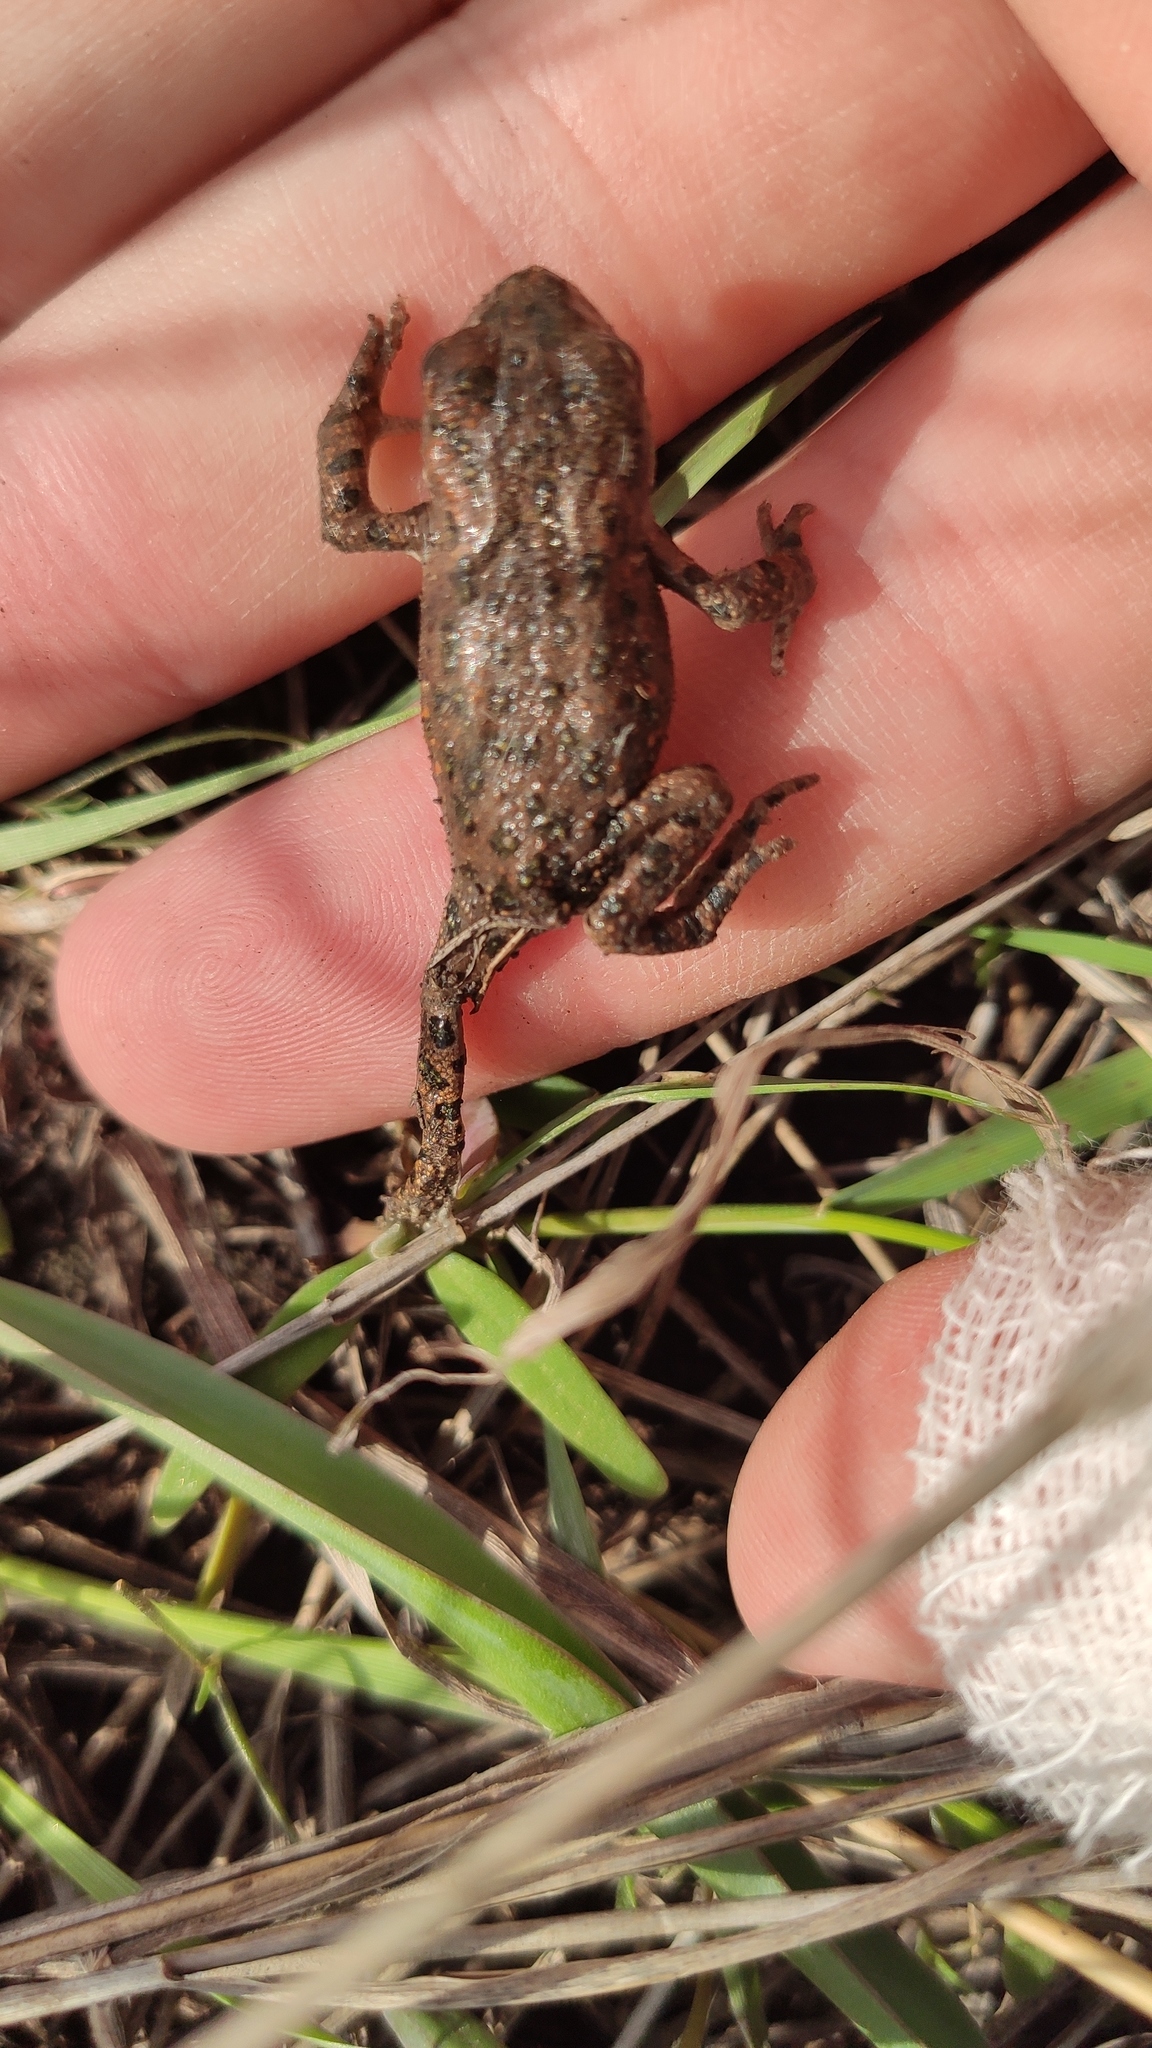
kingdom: Animalia
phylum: Chordata
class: Amphibia
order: Anura
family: Bufonidae
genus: Bufotes
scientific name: Bufotes viridis
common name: European green toad
